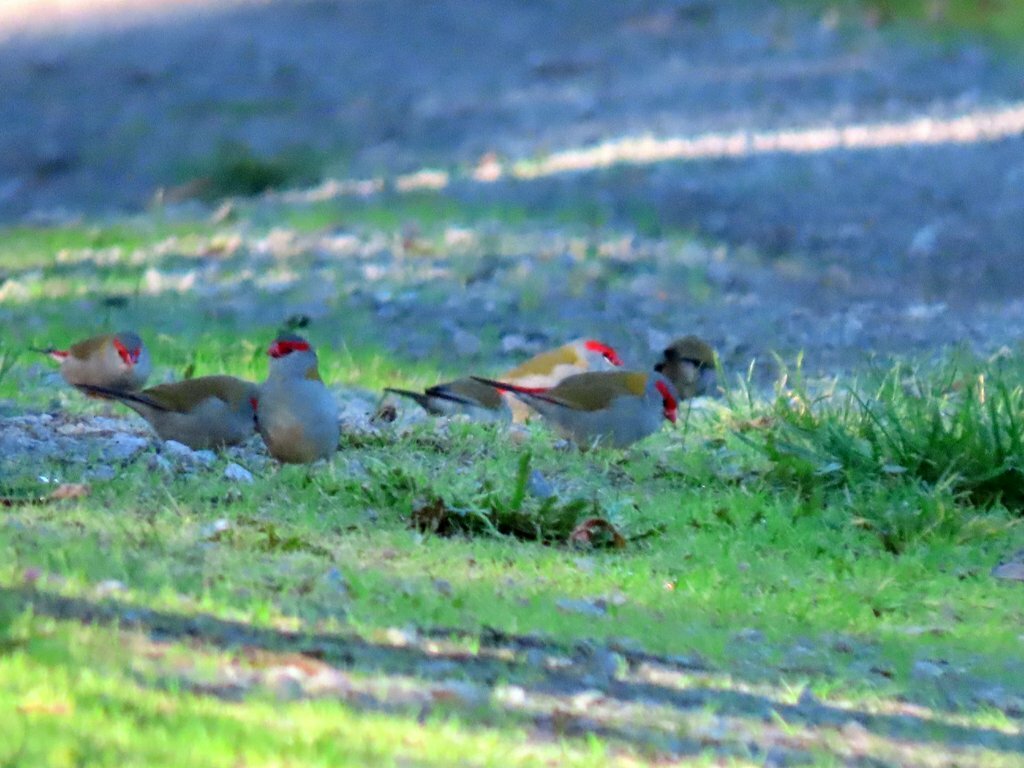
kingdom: Animalia
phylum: Chordata
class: Aves
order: Passeriformes
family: Estrildidae
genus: Neochmia
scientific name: Neochmia temporalis
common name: Red-browed finch
